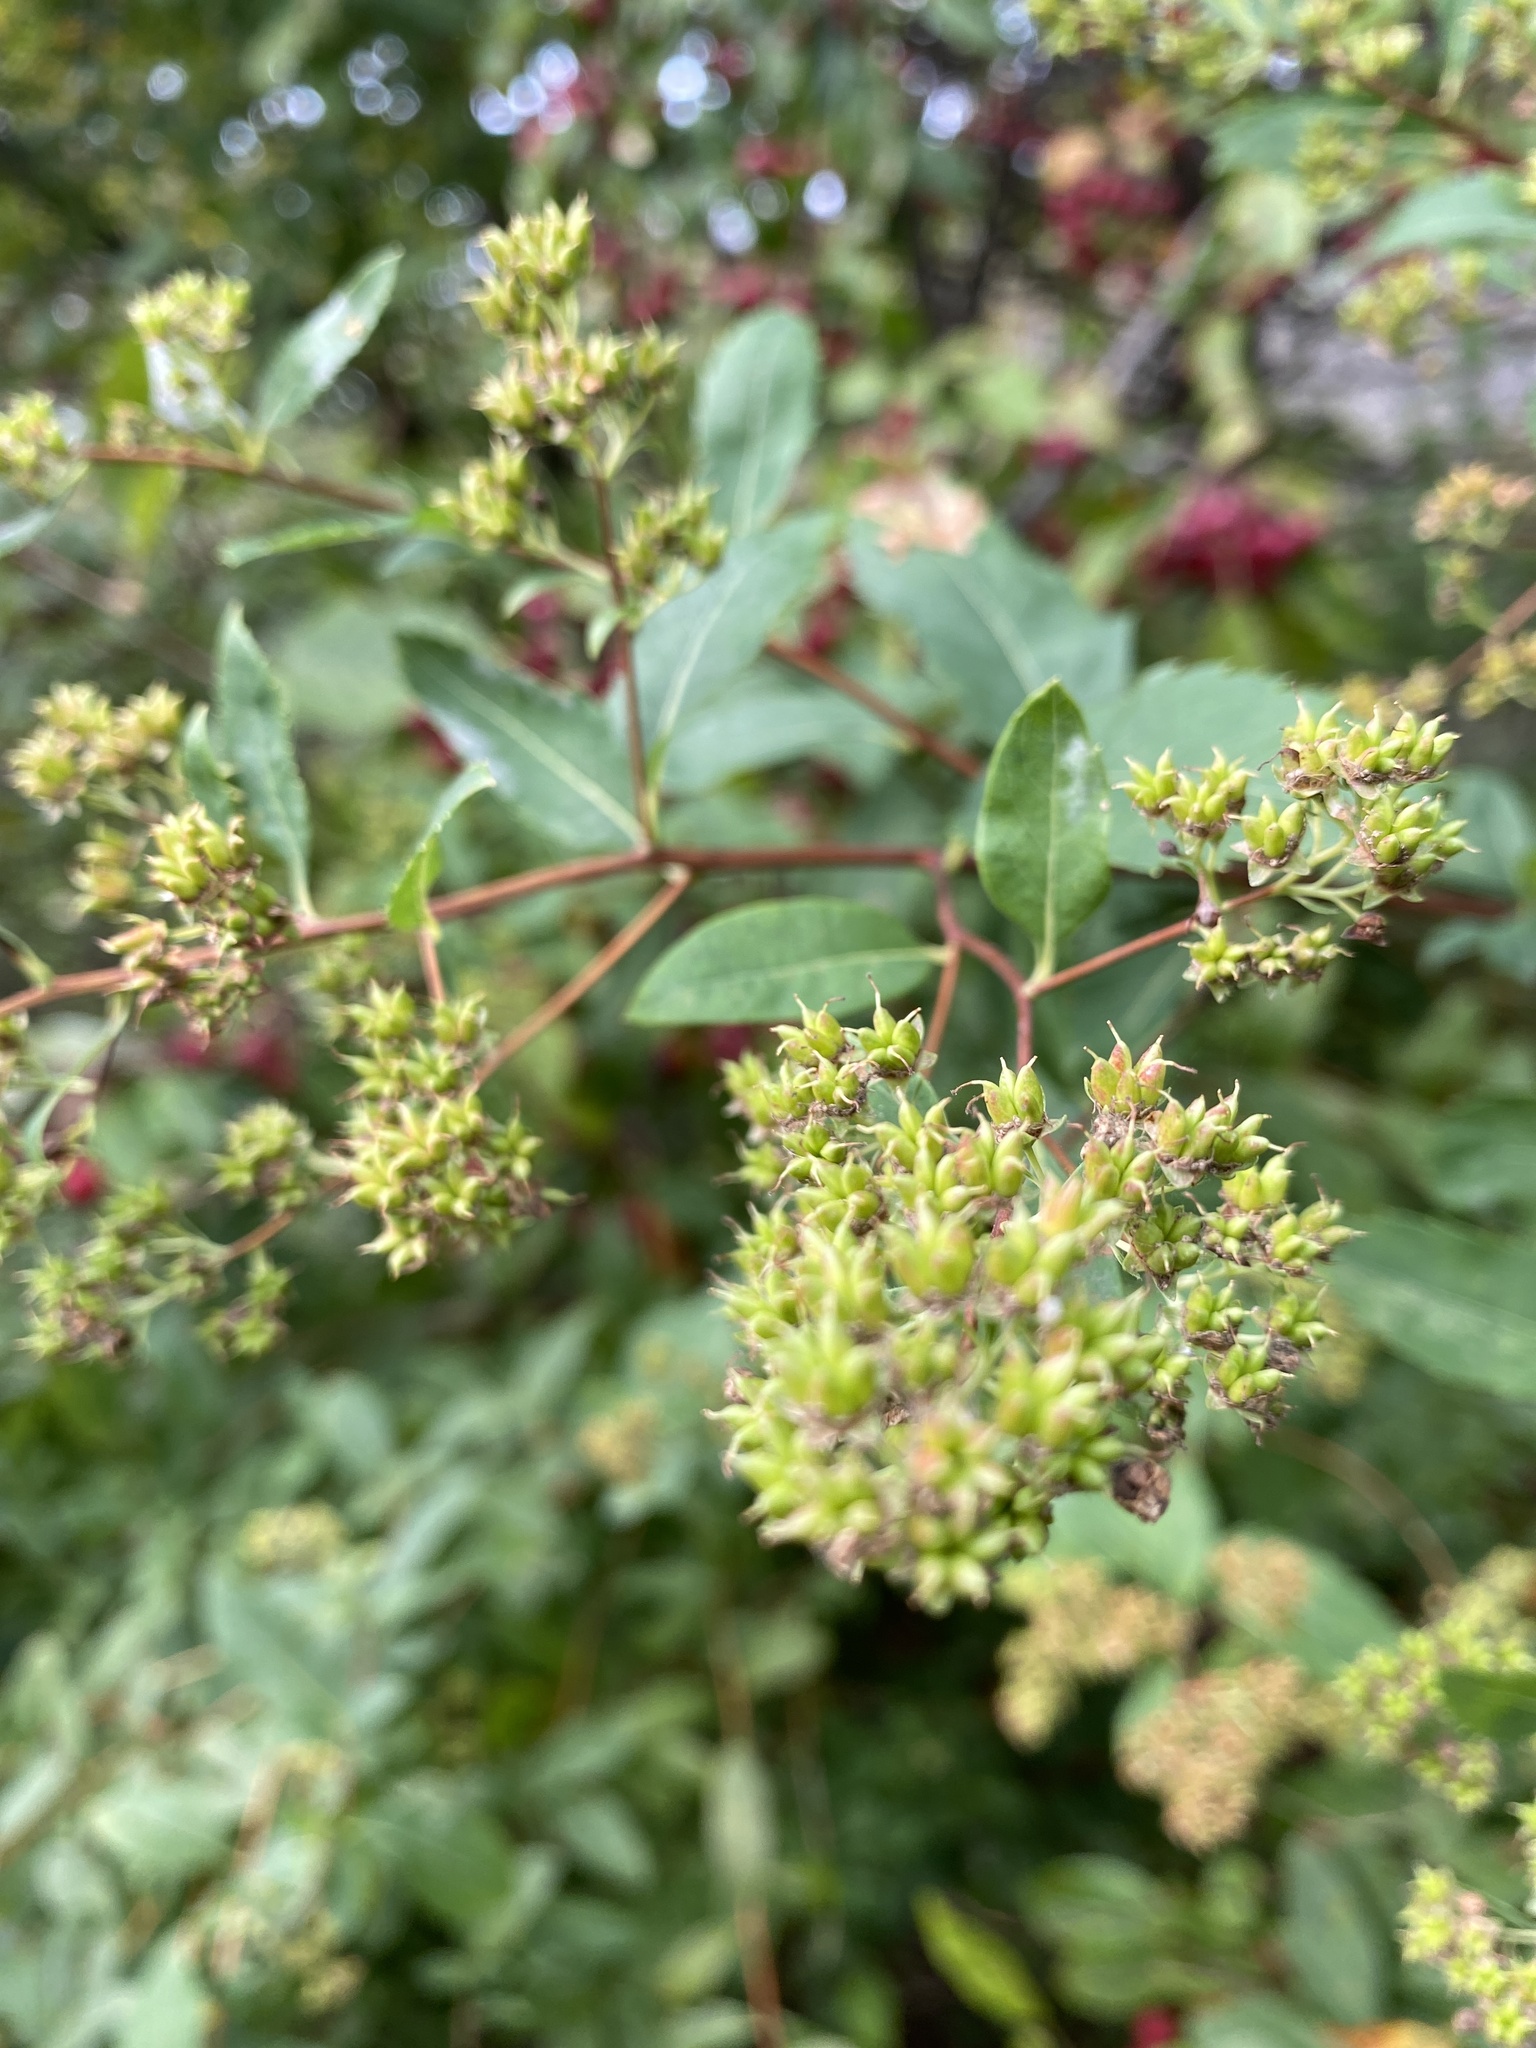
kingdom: Plantae
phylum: Tracheophyta
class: Magnoliopsida
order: Rosales
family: Rosaceae
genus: Spiraea
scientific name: Spiraea alba
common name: Pale bridewort
